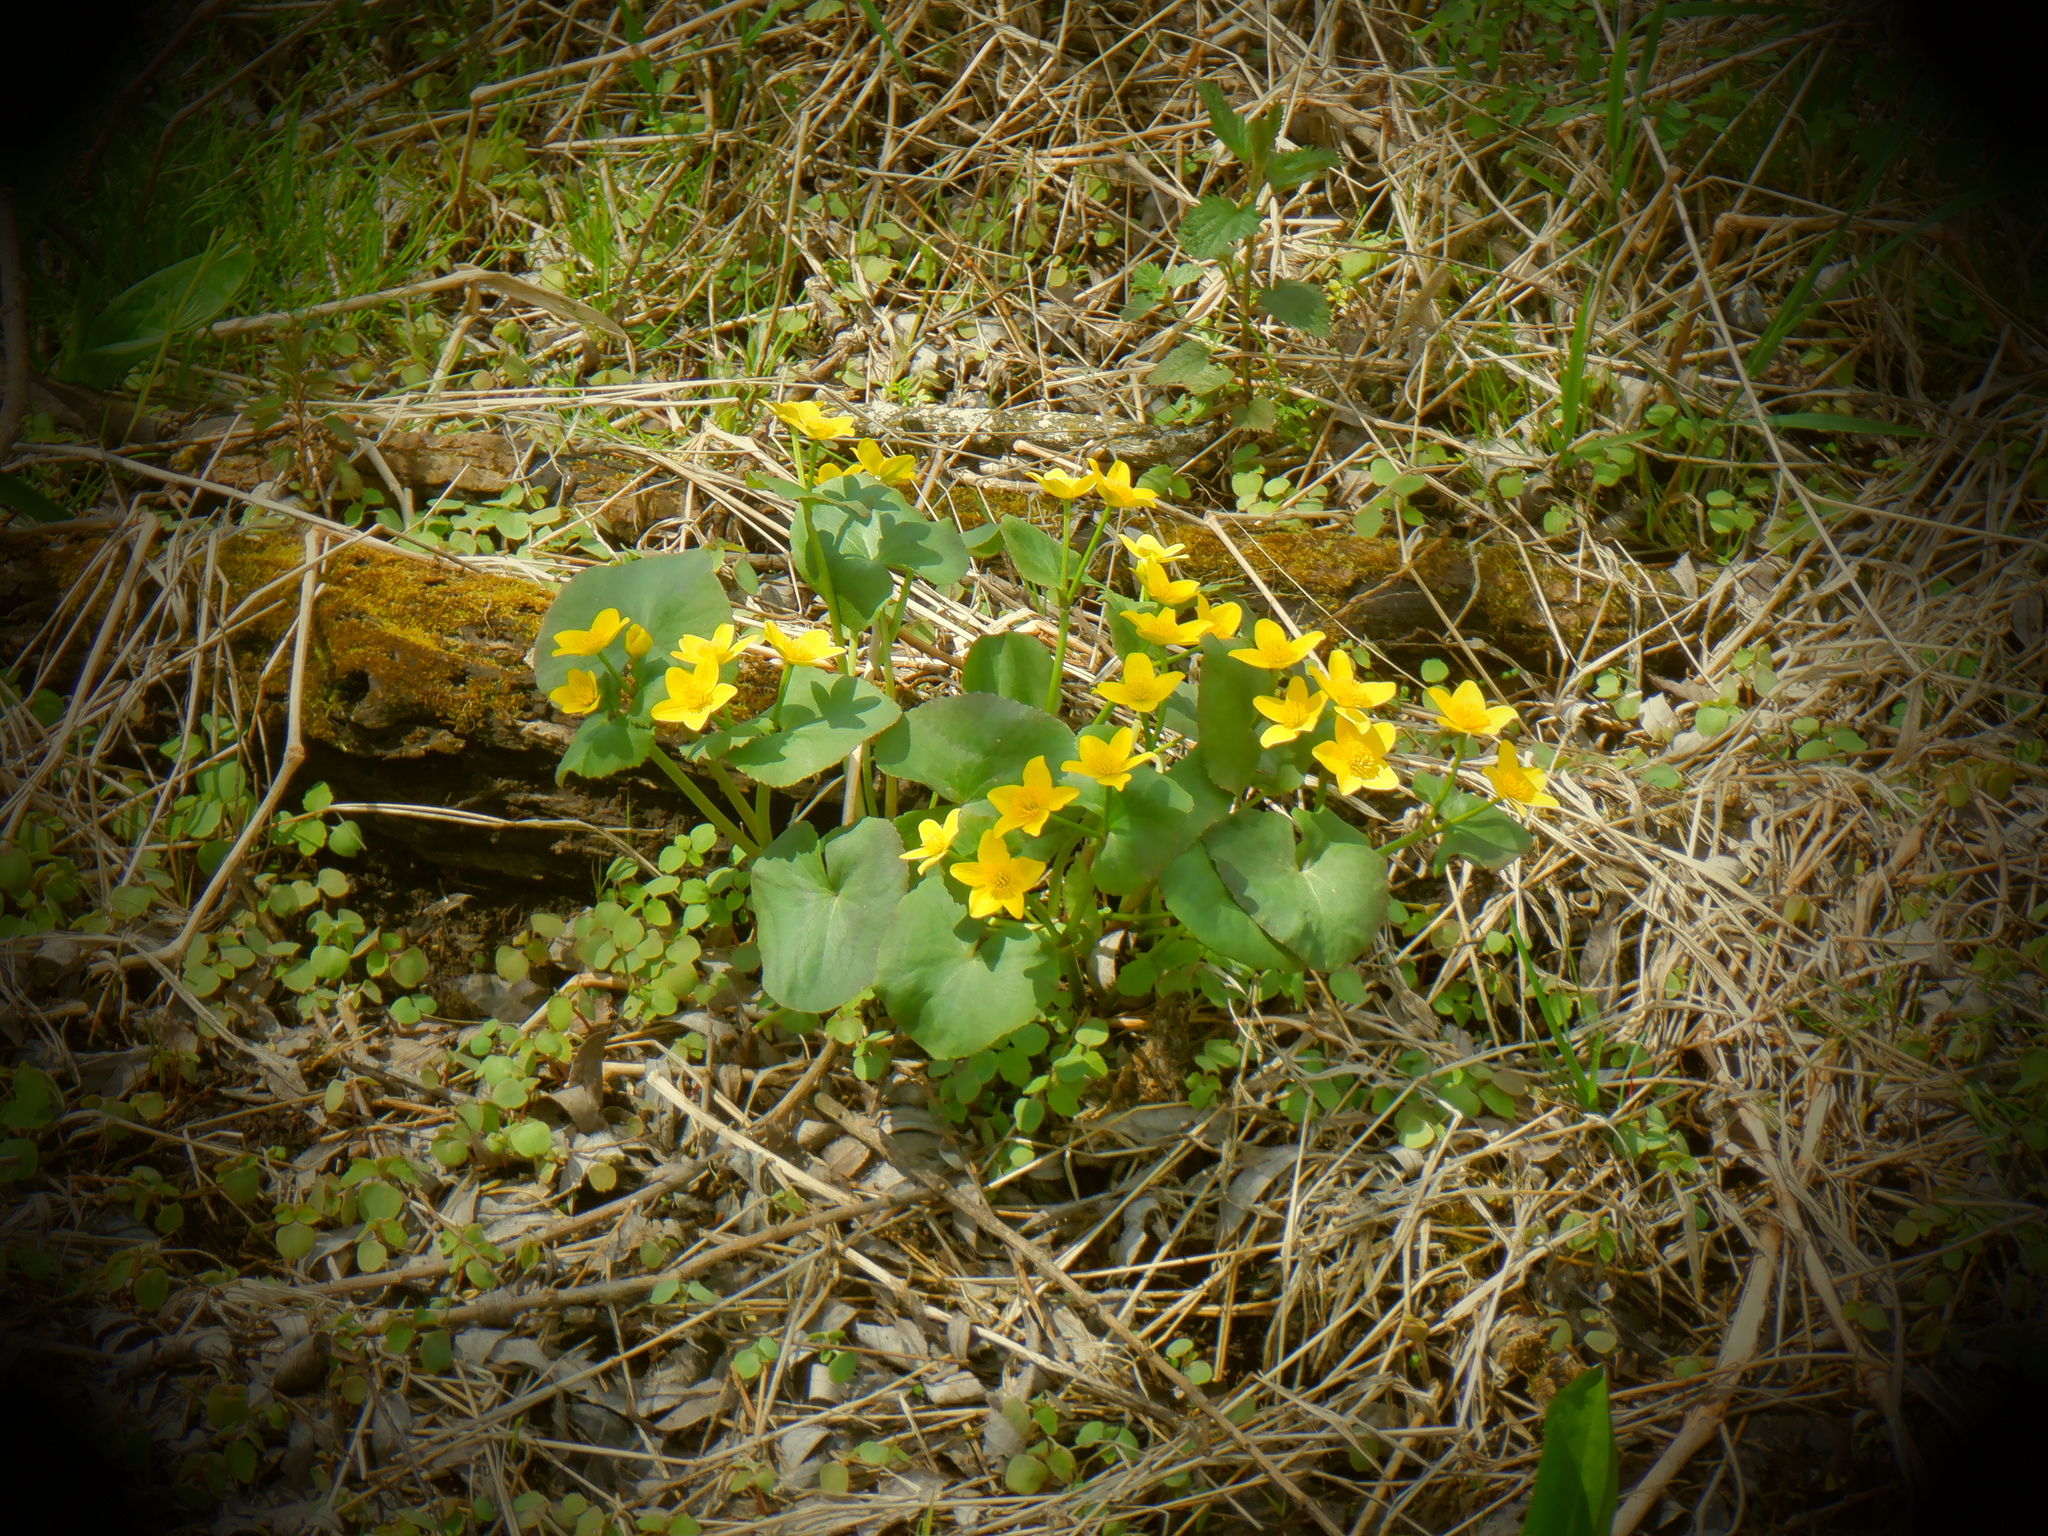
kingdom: Plantae
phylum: Tracheophyta
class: Magnoliopsida
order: Ranunculales
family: Ranunculaceae
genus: Caltha
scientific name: Caltha palustris
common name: Marsh marigold
